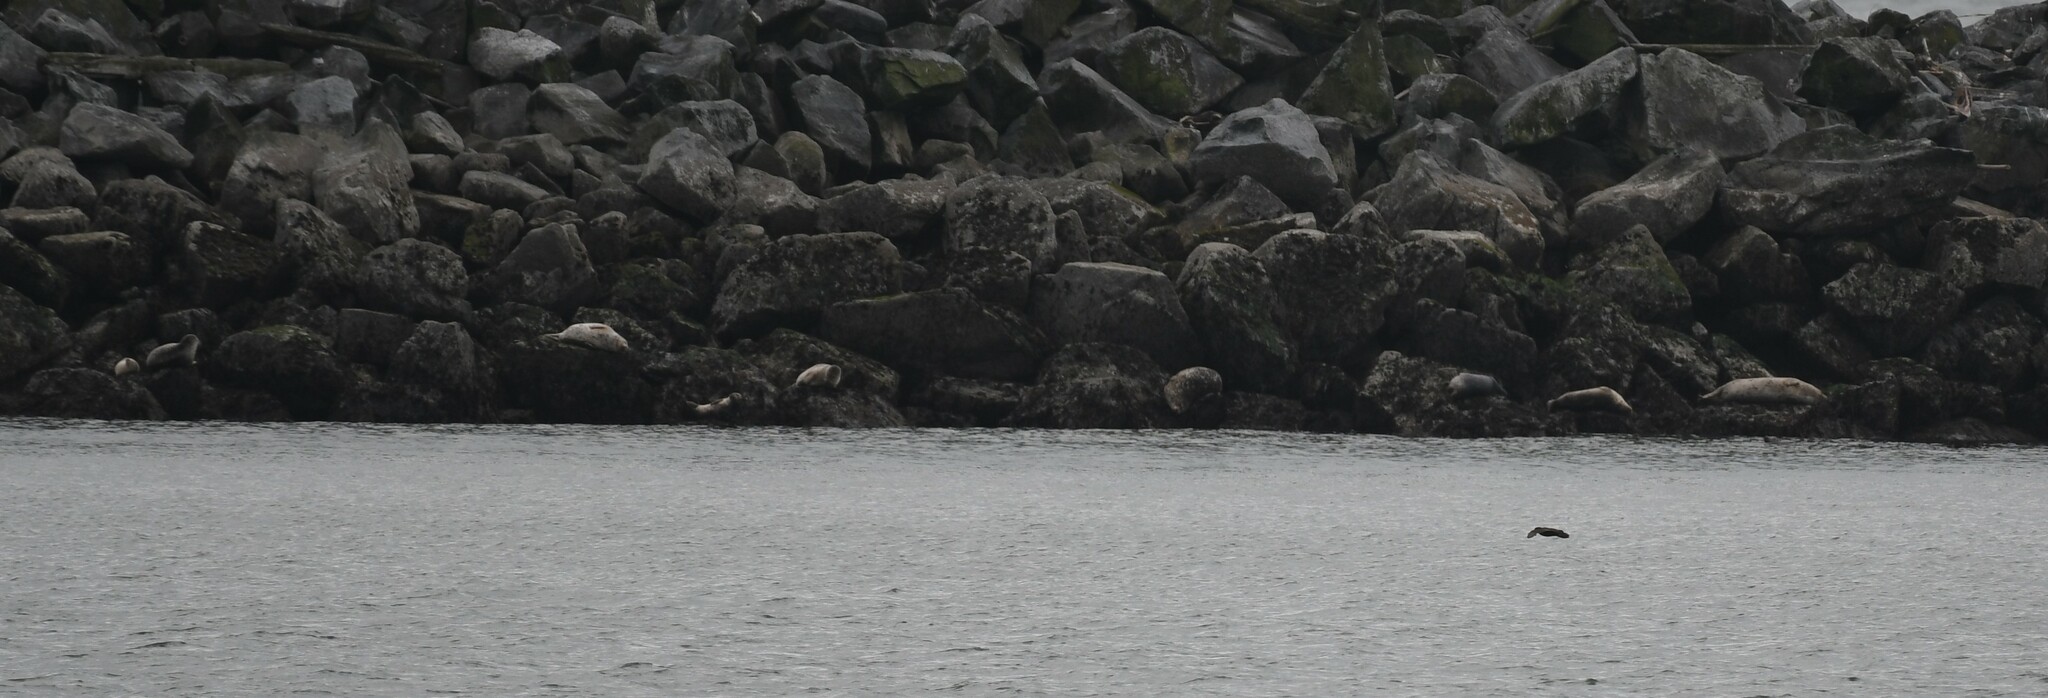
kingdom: Animalia
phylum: Chordata
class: Mammalia
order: Carnivora
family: Phocidae
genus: Phoca
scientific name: Phoca vitulina
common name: Harbor seal
